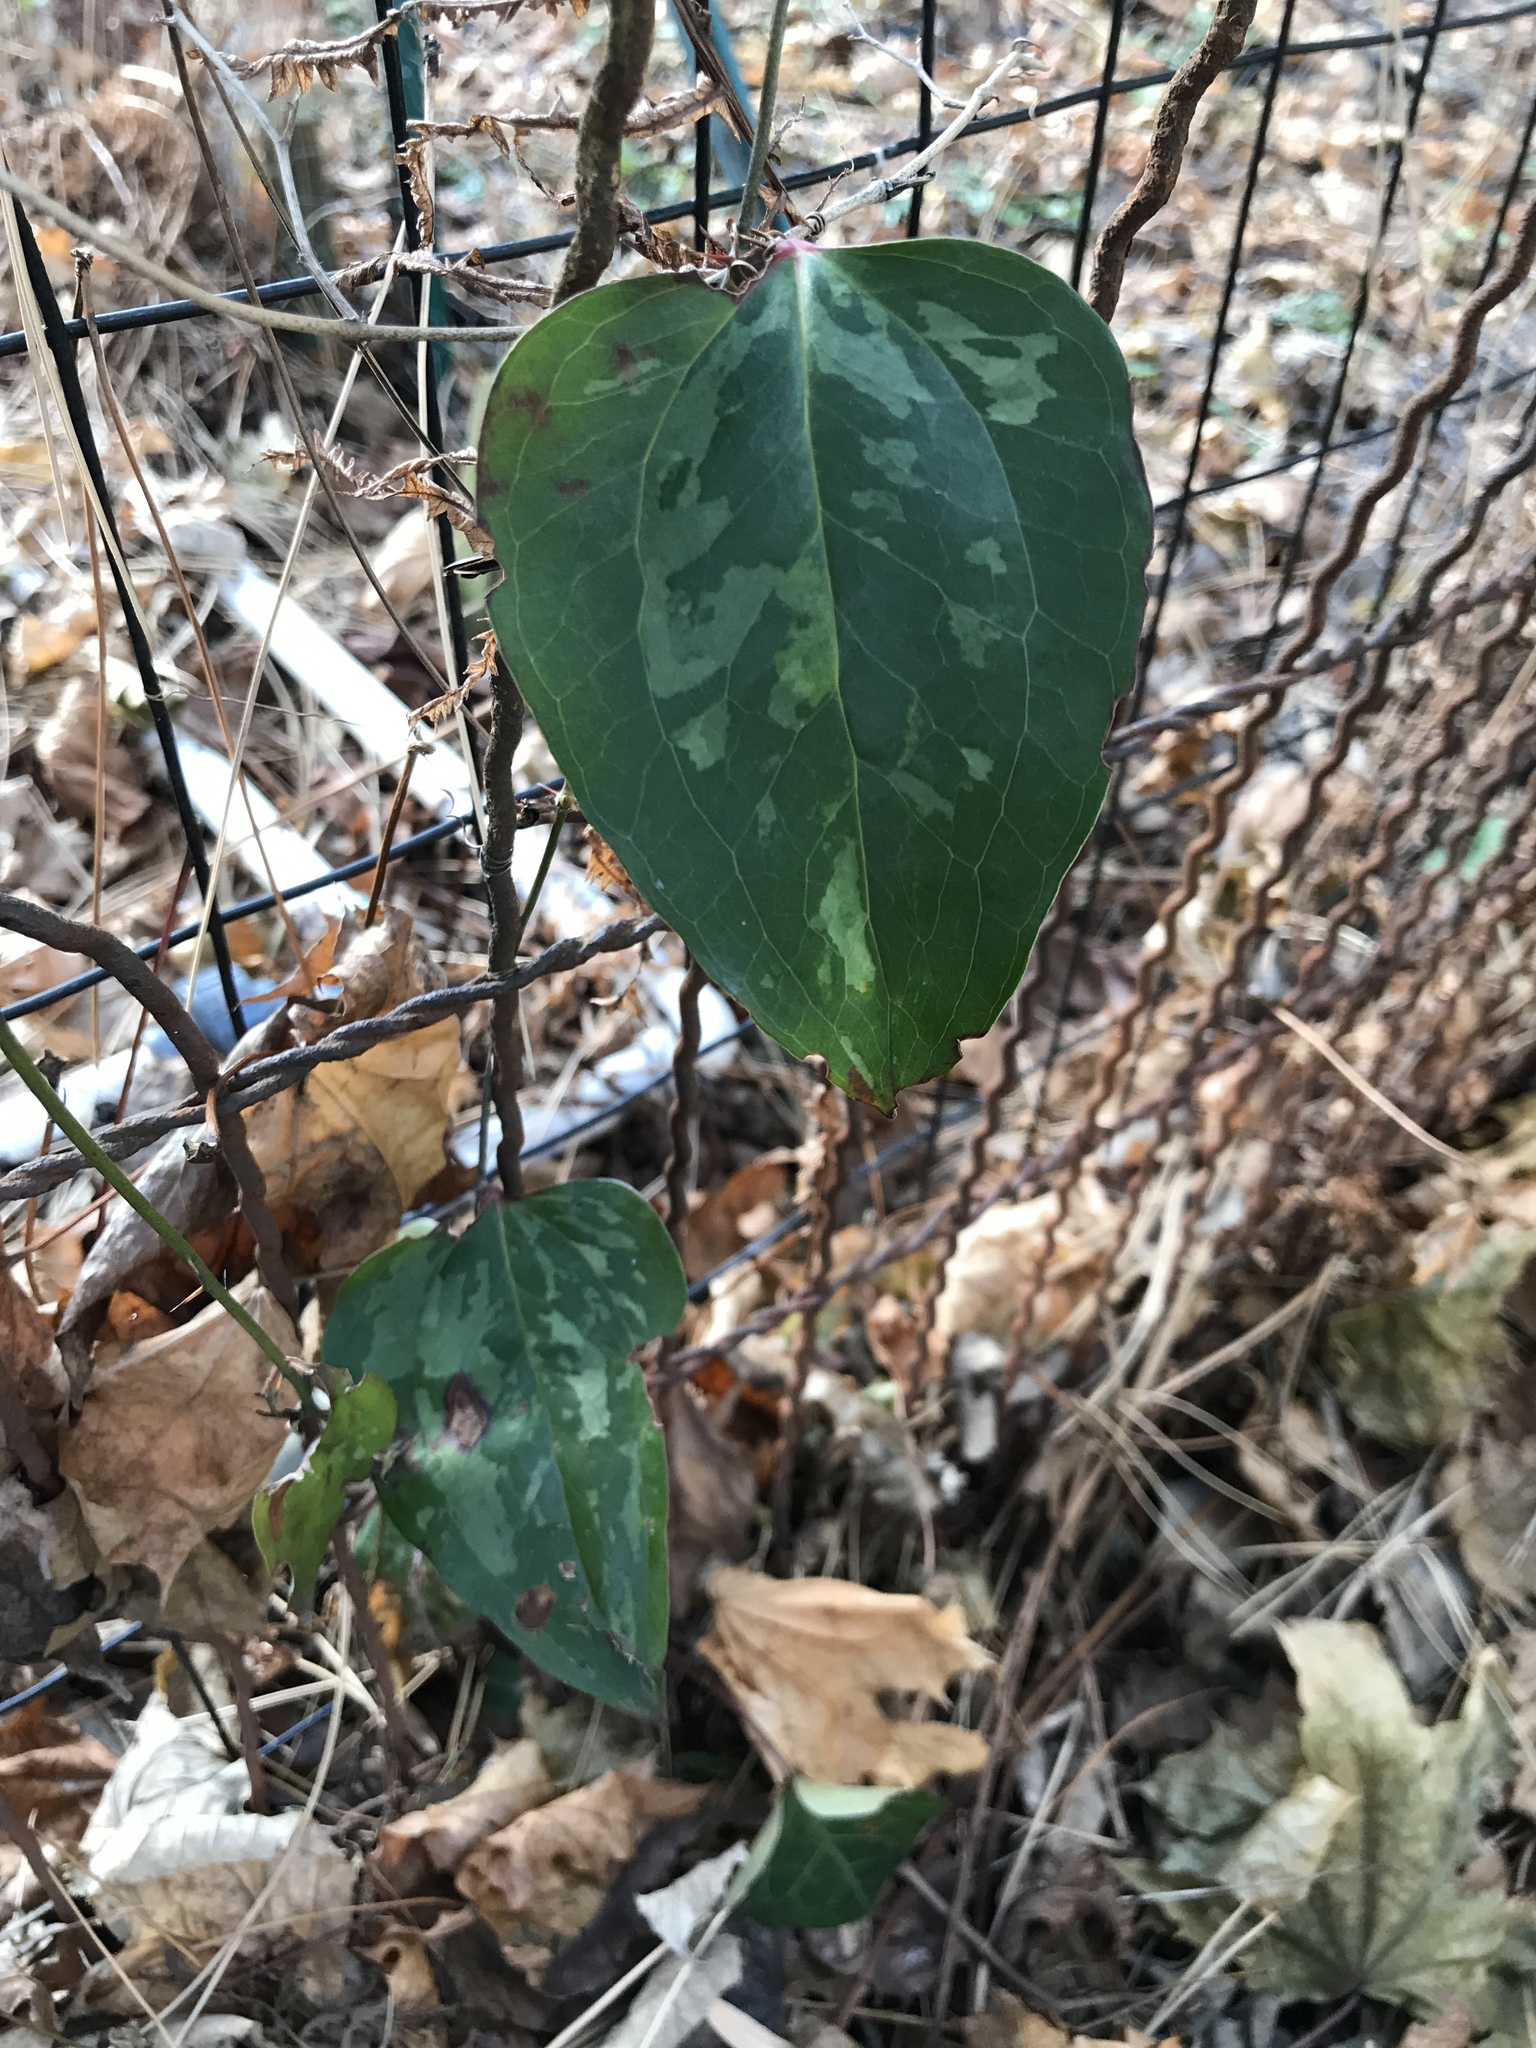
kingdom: Plantae
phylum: Tracheophyta
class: Liliopsida
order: Liliales
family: Smilacaceae
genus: Smilax
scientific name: Smilax glauca
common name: Cat greenbrier
